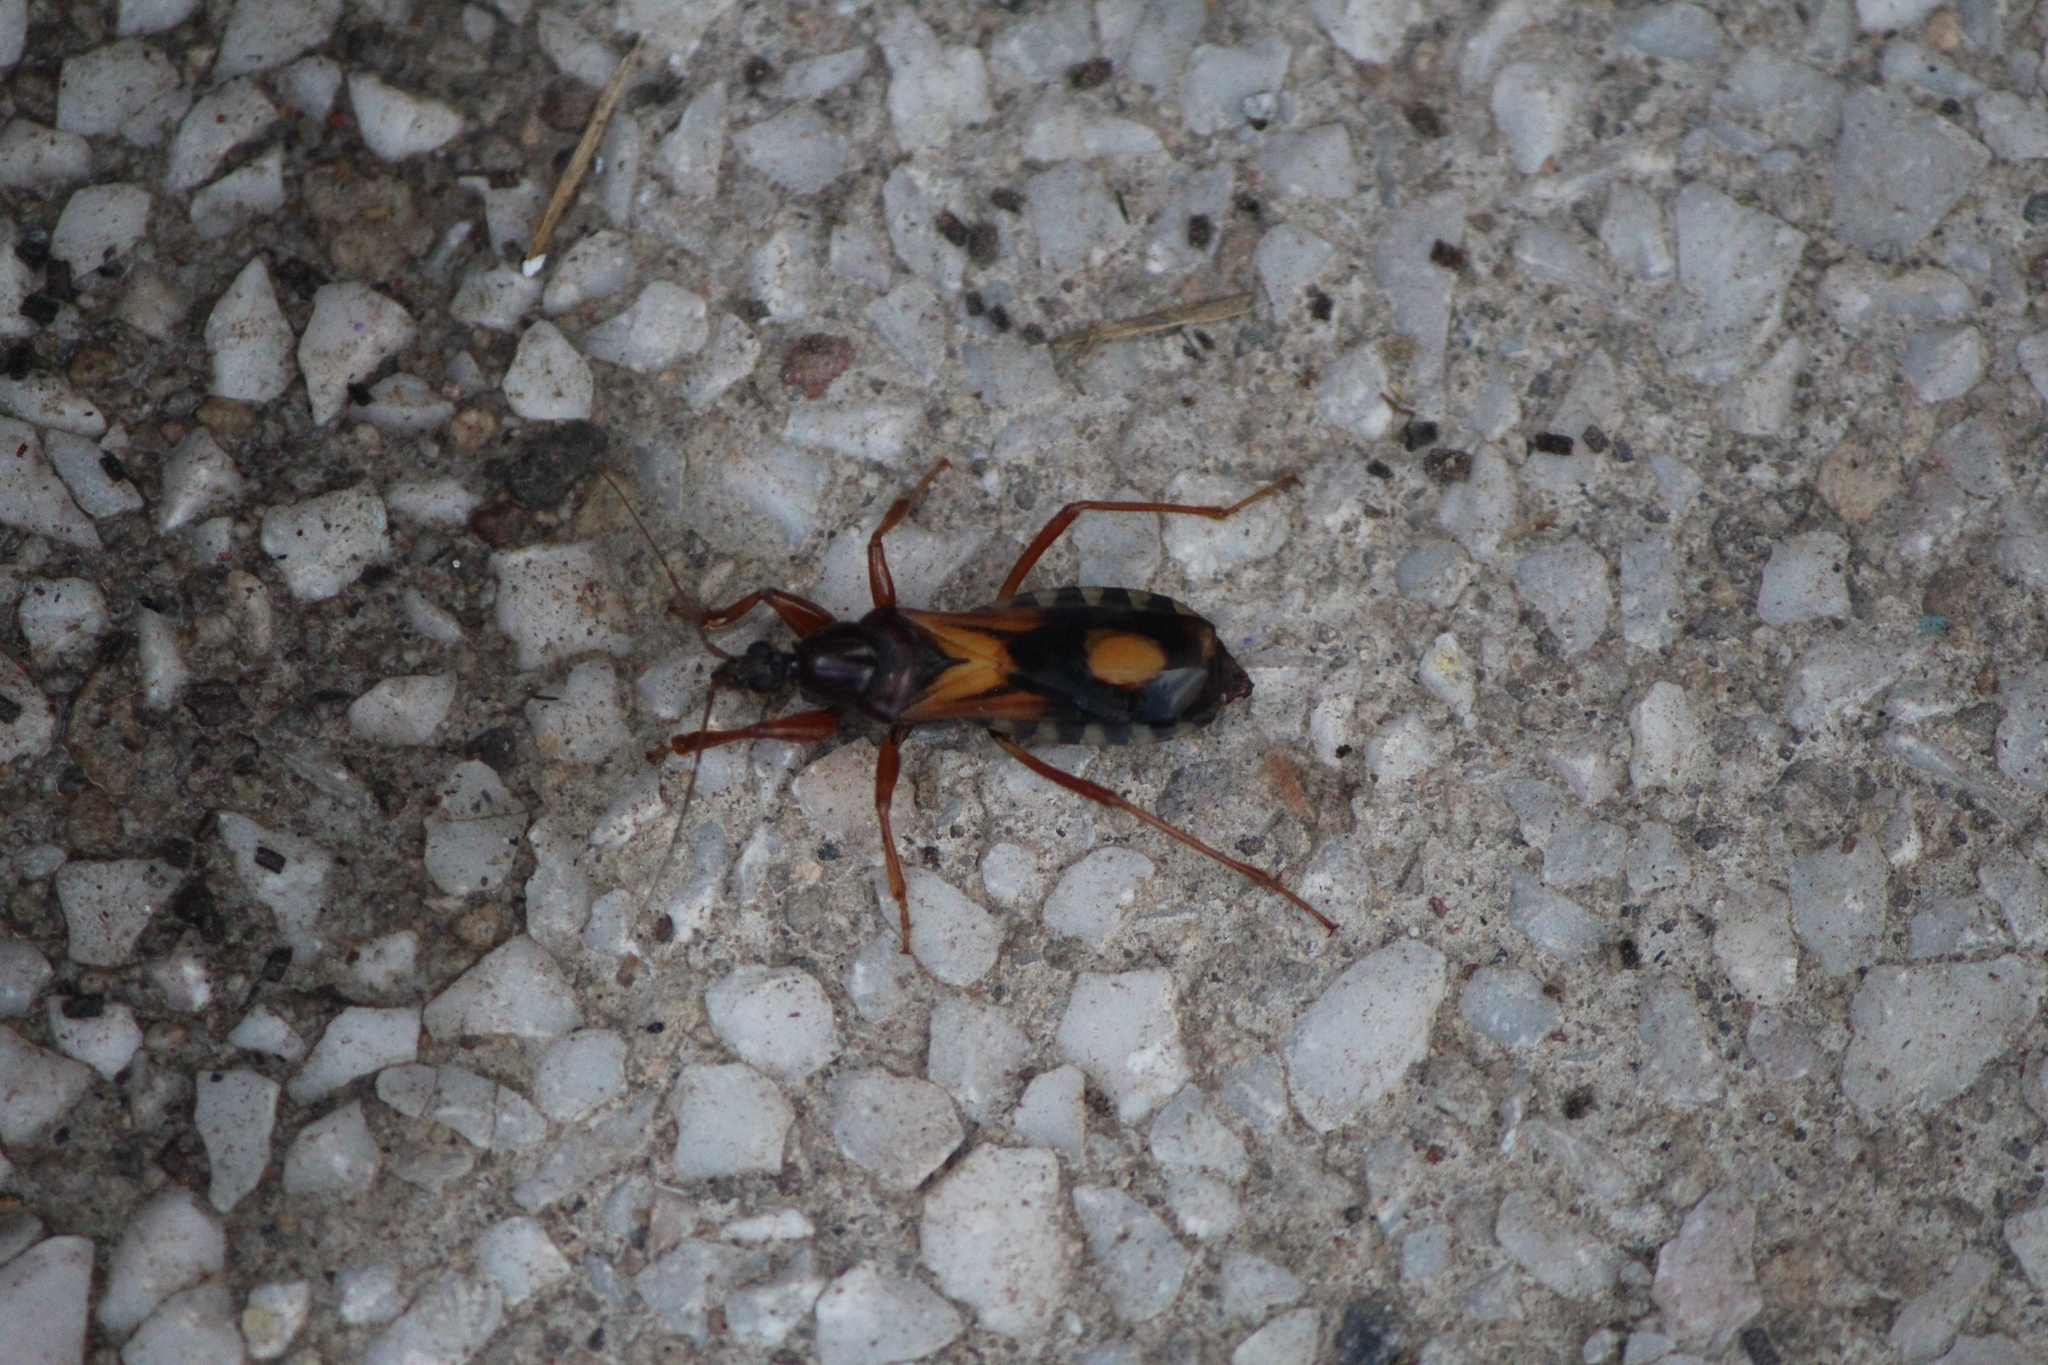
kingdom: Animalia
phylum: Arthropoda
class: Insecta
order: Hemiptera
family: Reduviidae
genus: Rasahus
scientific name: Rasahus biguttatus
